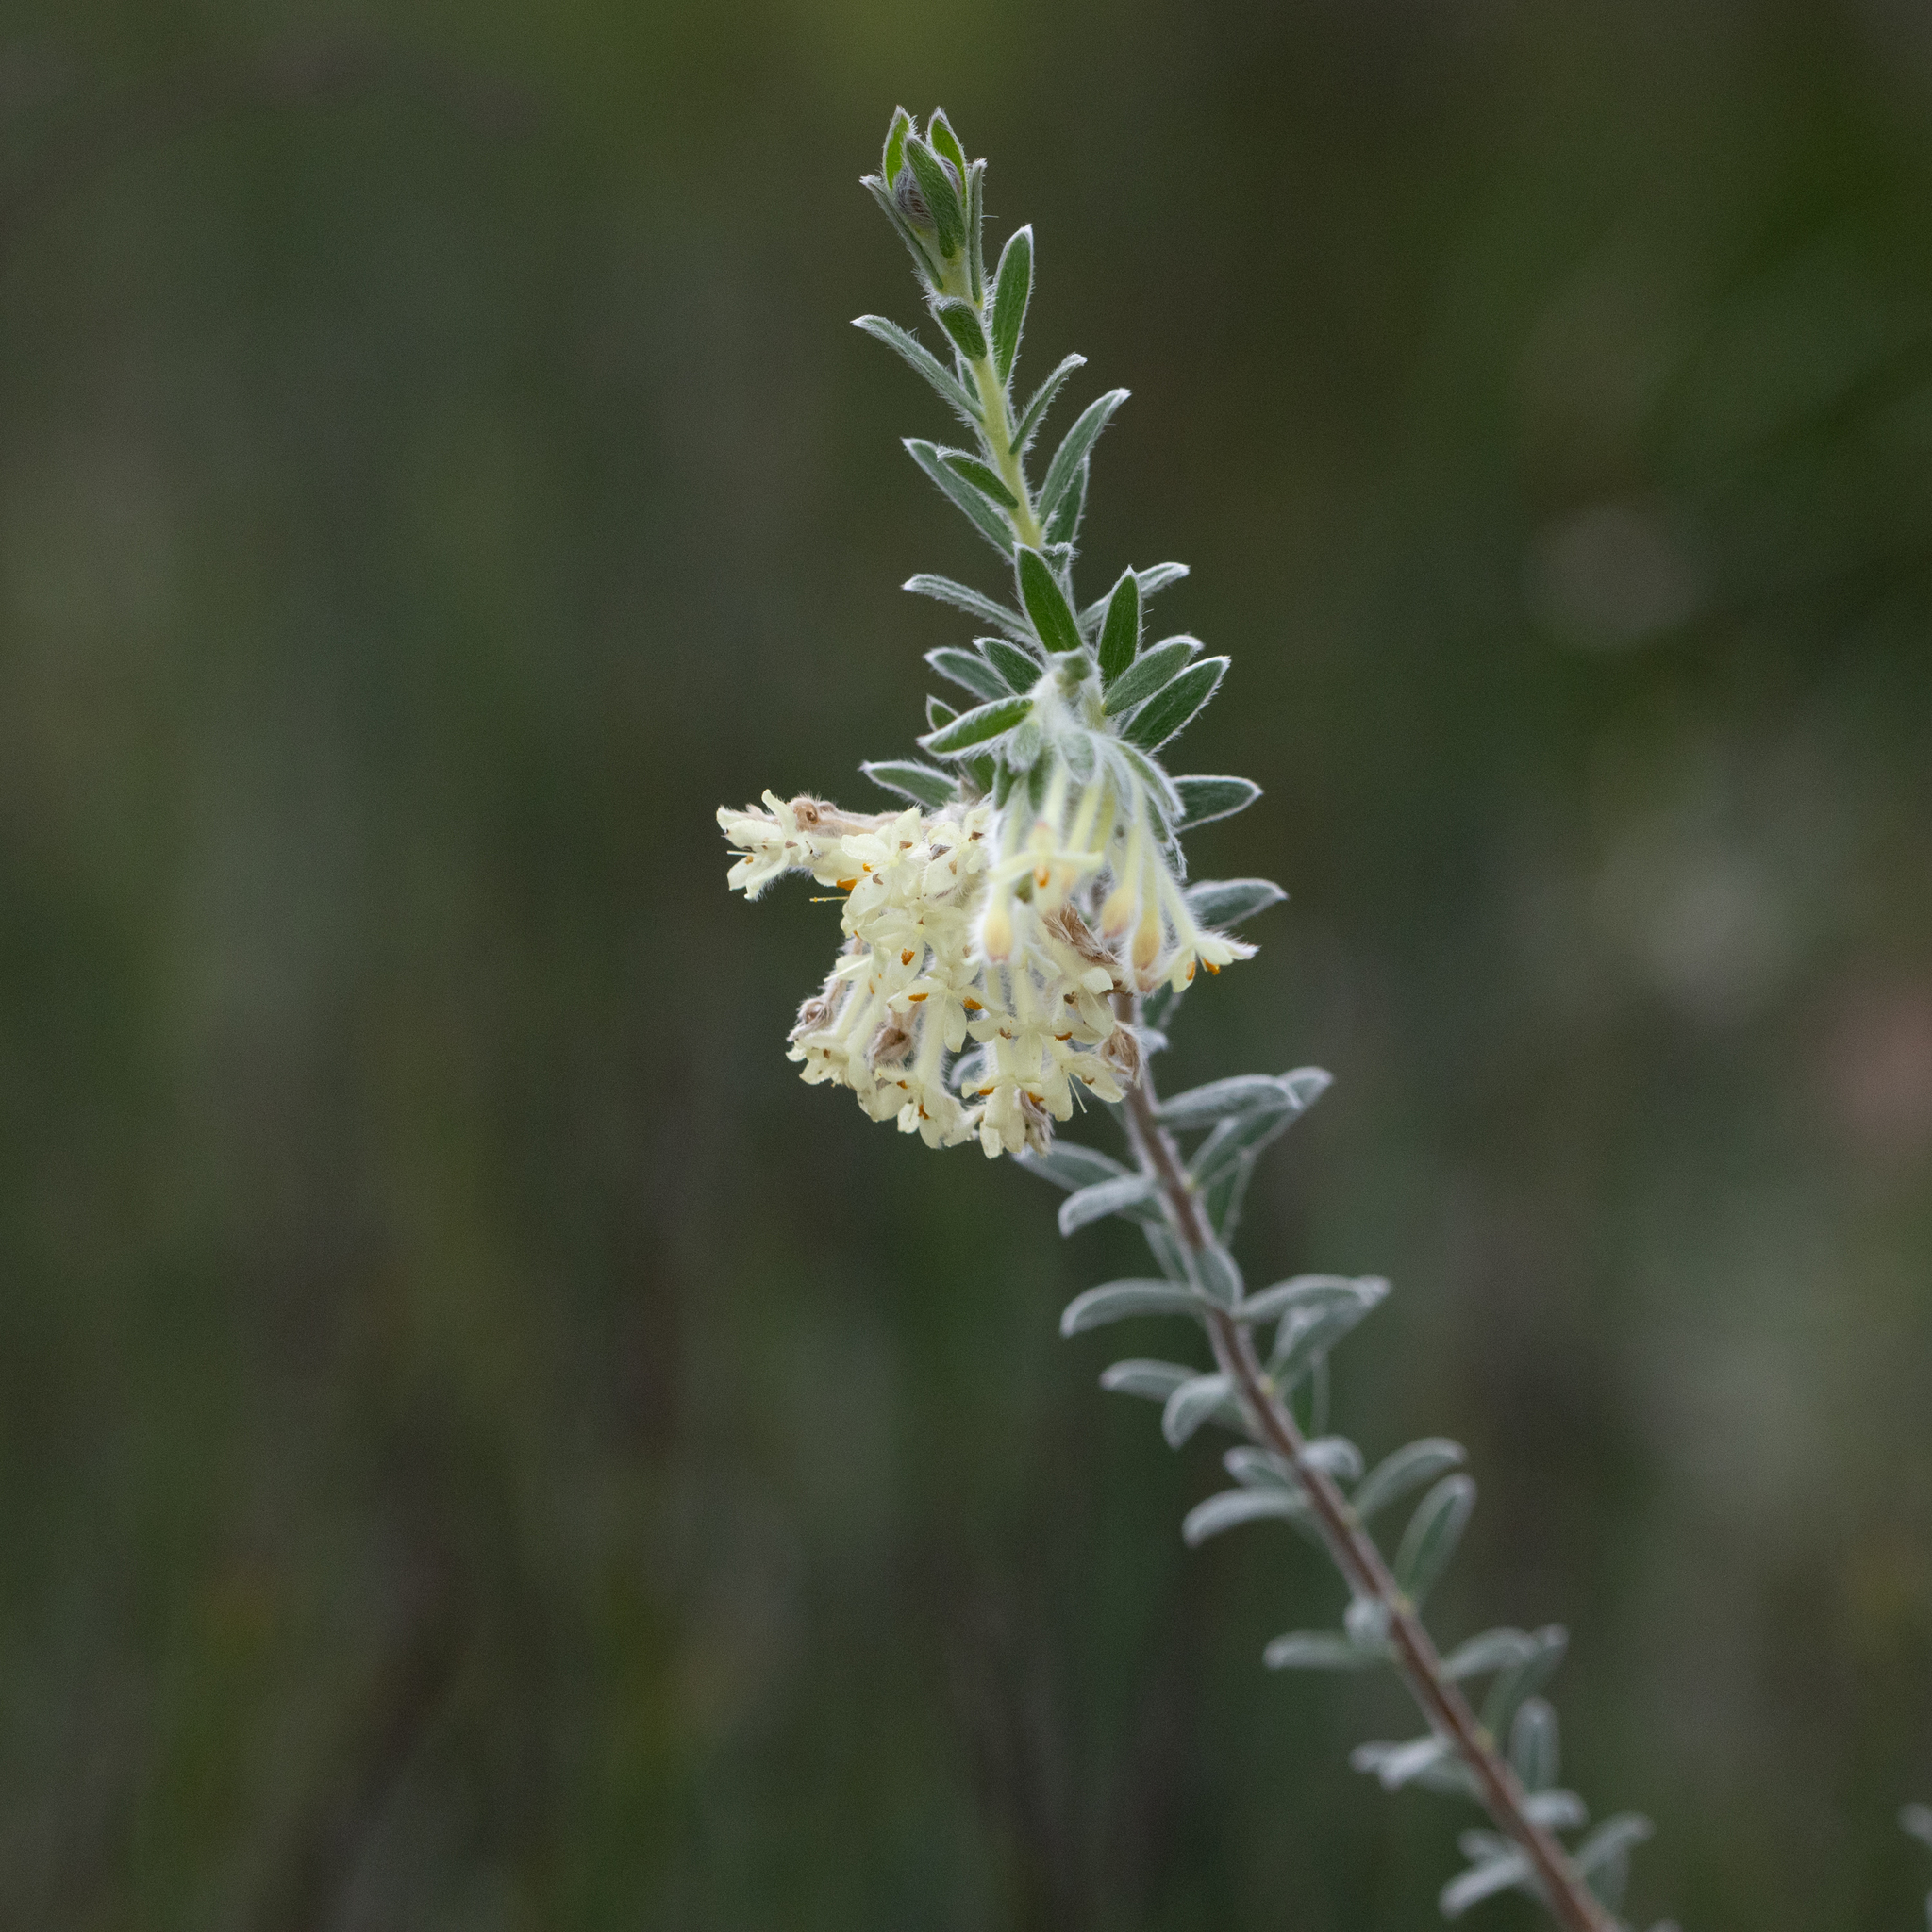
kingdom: Plantae
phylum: Tracheophyta
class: Magnoliopsida
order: Malvales
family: Thymelaeaceae
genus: Pimelea
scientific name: Pimelea octophylla
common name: Woolly riceflower
